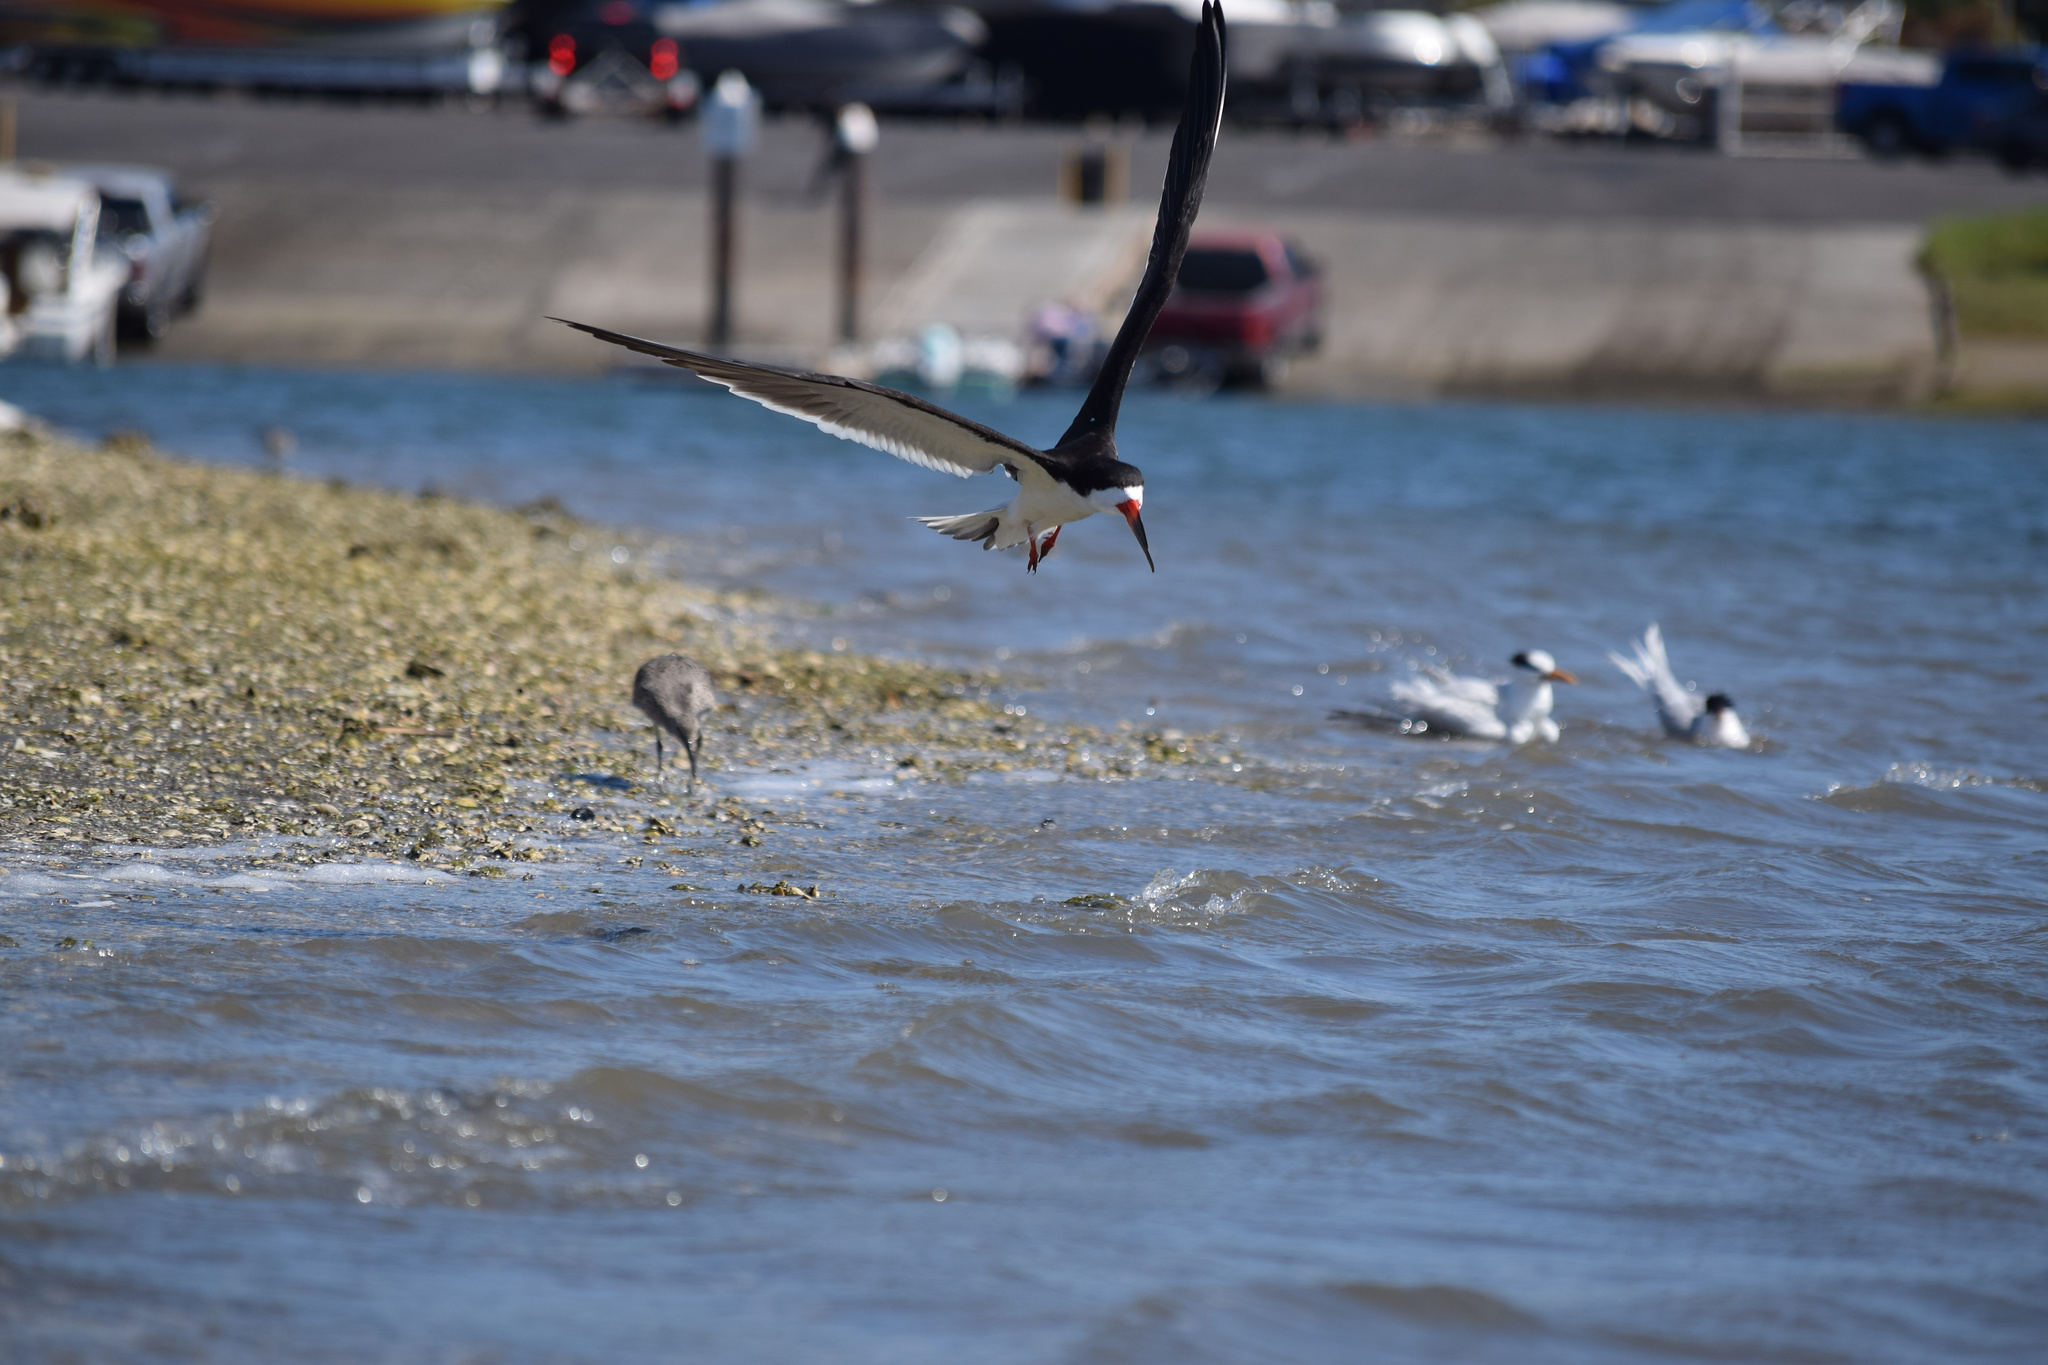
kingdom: Animalia
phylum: Chordata
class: Aves
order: Charadriiformes
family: Laridae
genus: Rynchops
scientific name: Rynchops niger
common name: Black skimmer
